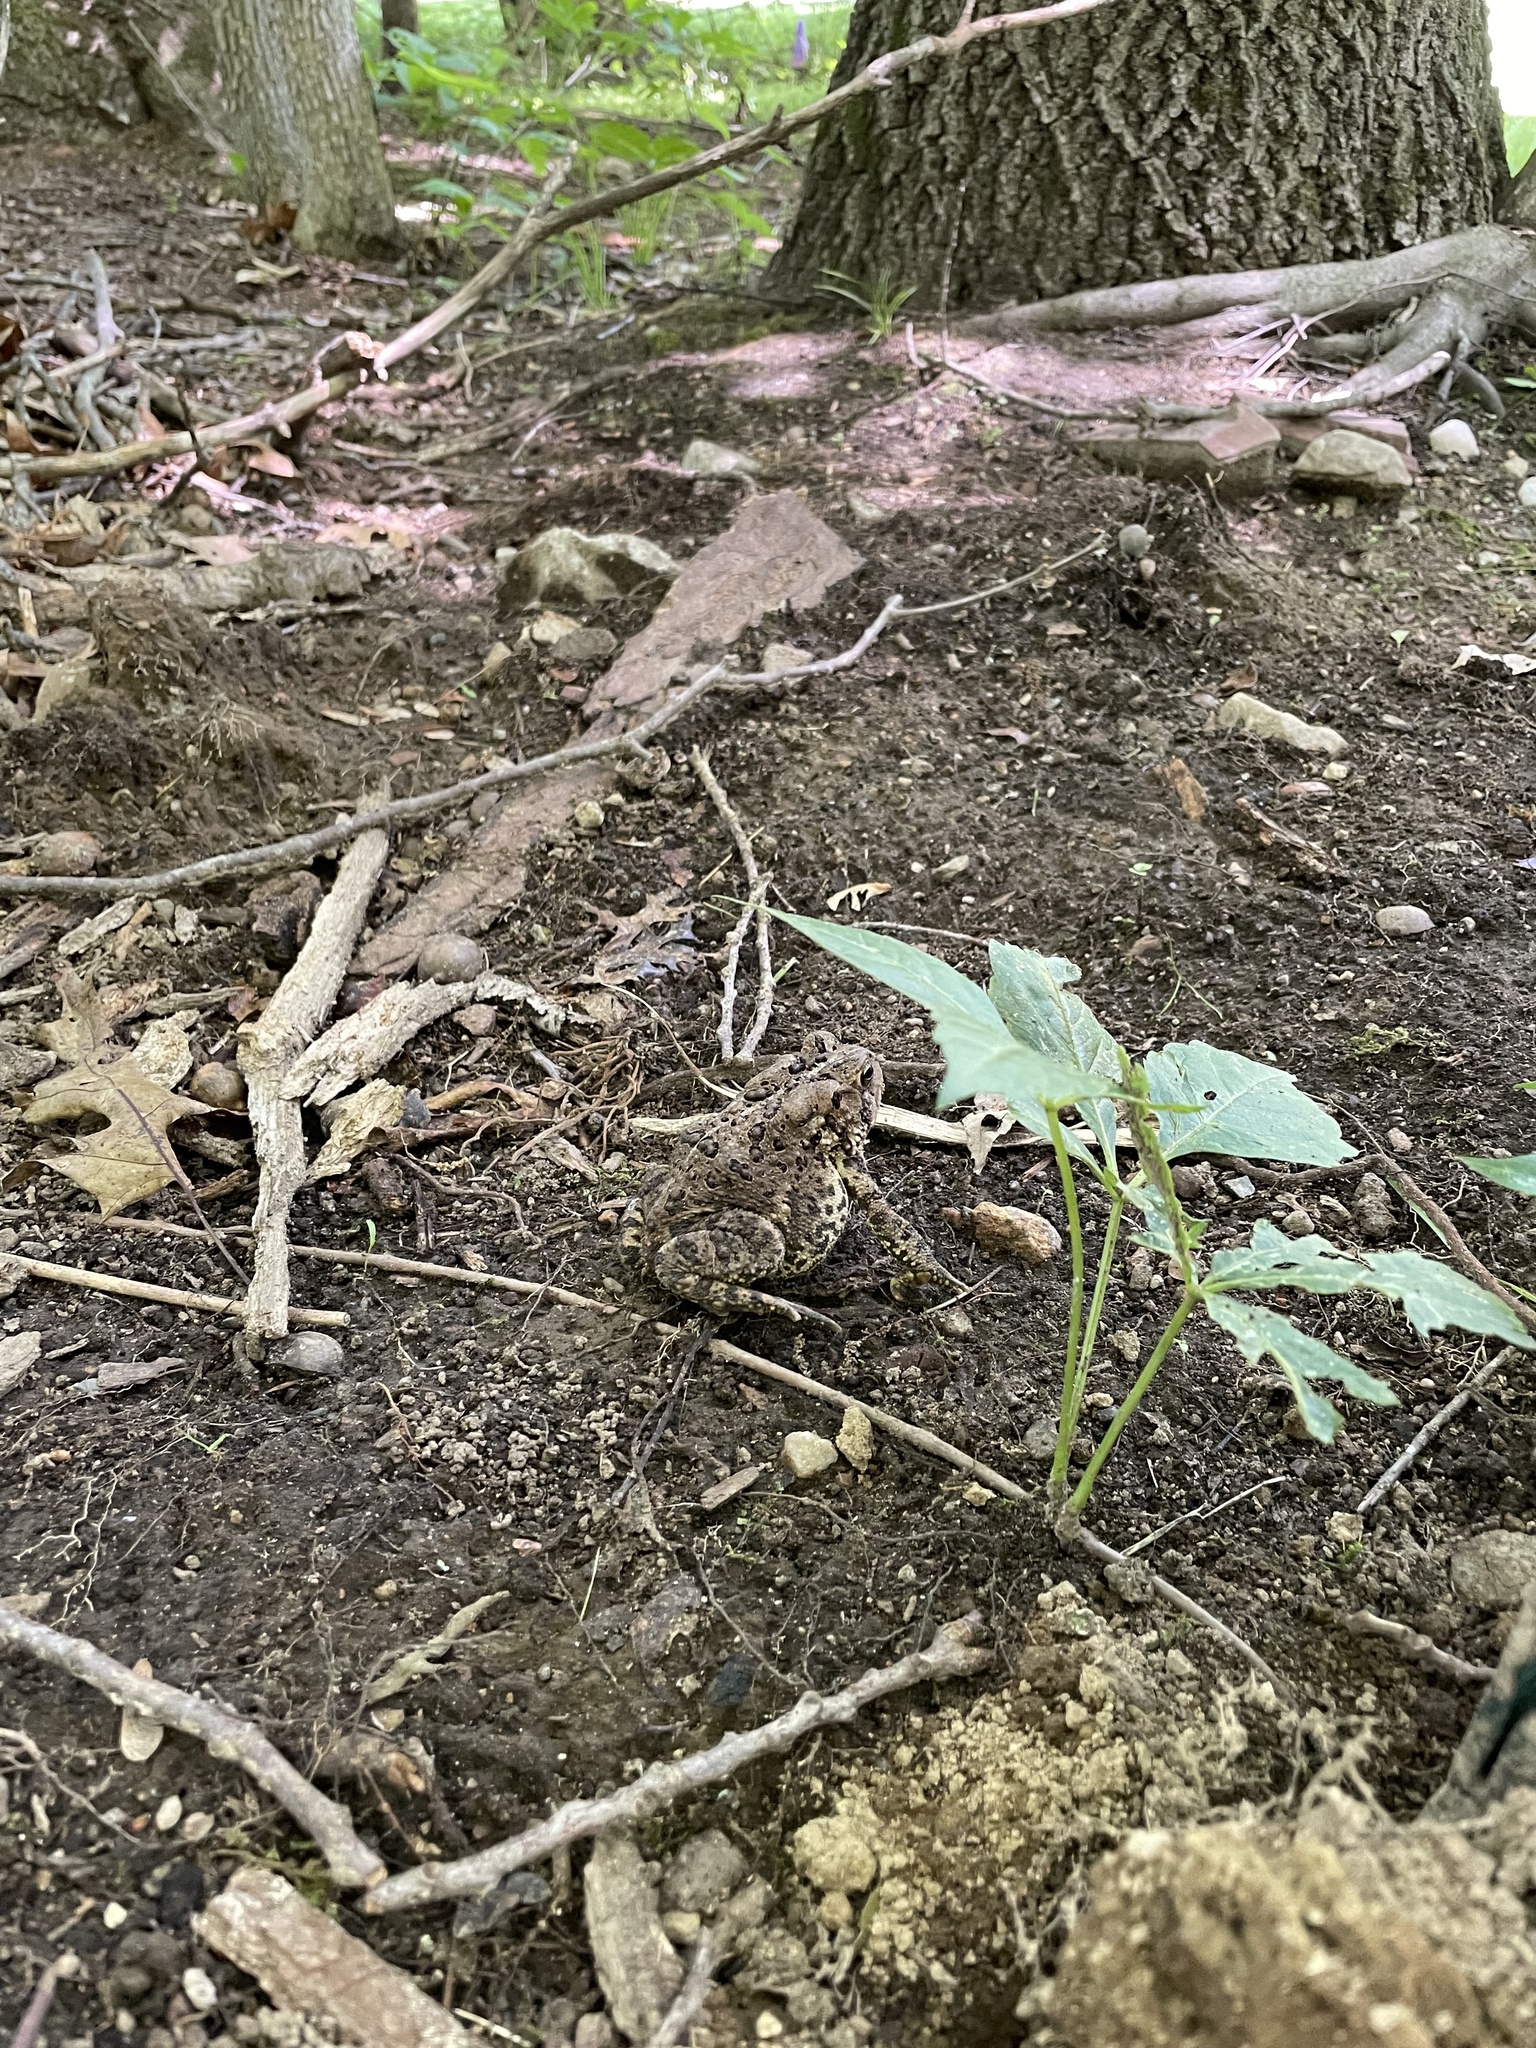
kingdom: Animalia
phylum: Chordata
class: Amphibia
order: Anura
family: Bufonidae
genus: Anaxyrus
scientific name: Anaxyrus americanus
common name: American toad
